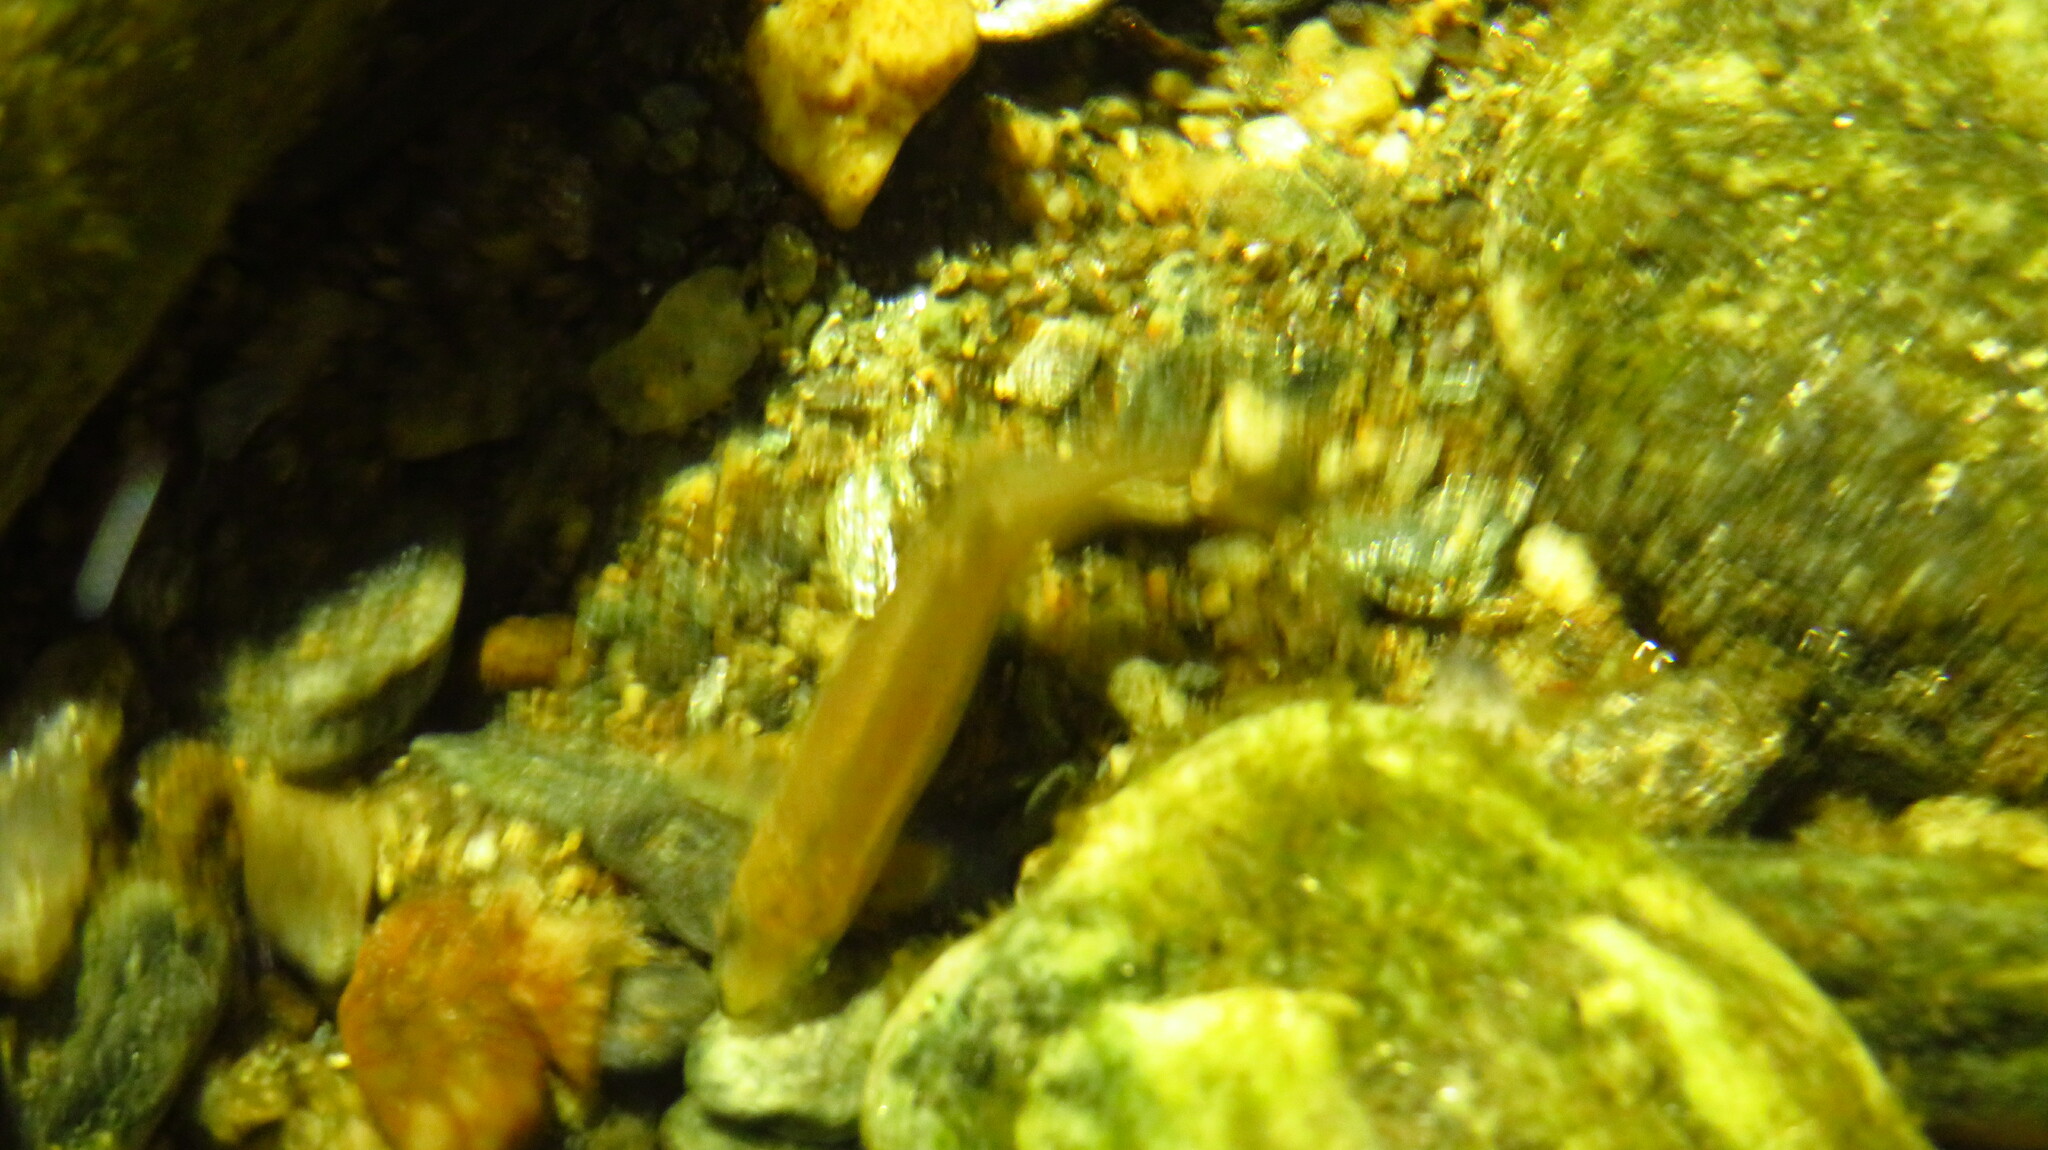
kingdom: Animalia
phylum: Chordata
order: Cypriniformes
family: Cyprinidae
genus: Rhinichthys
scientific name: Rhinichthys atratulus
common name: Eastern blacknose dace
